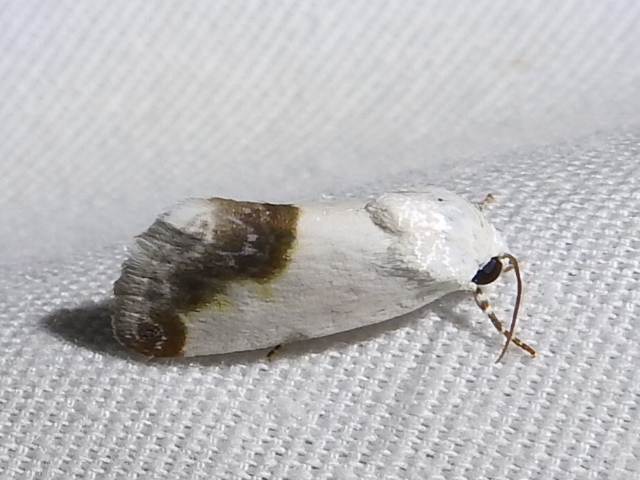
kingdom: Animalia
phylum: Arthropoda
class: Insecta
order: Lepidoptera
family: Noctuidae
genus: Acontia
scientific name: Acontia cretata
